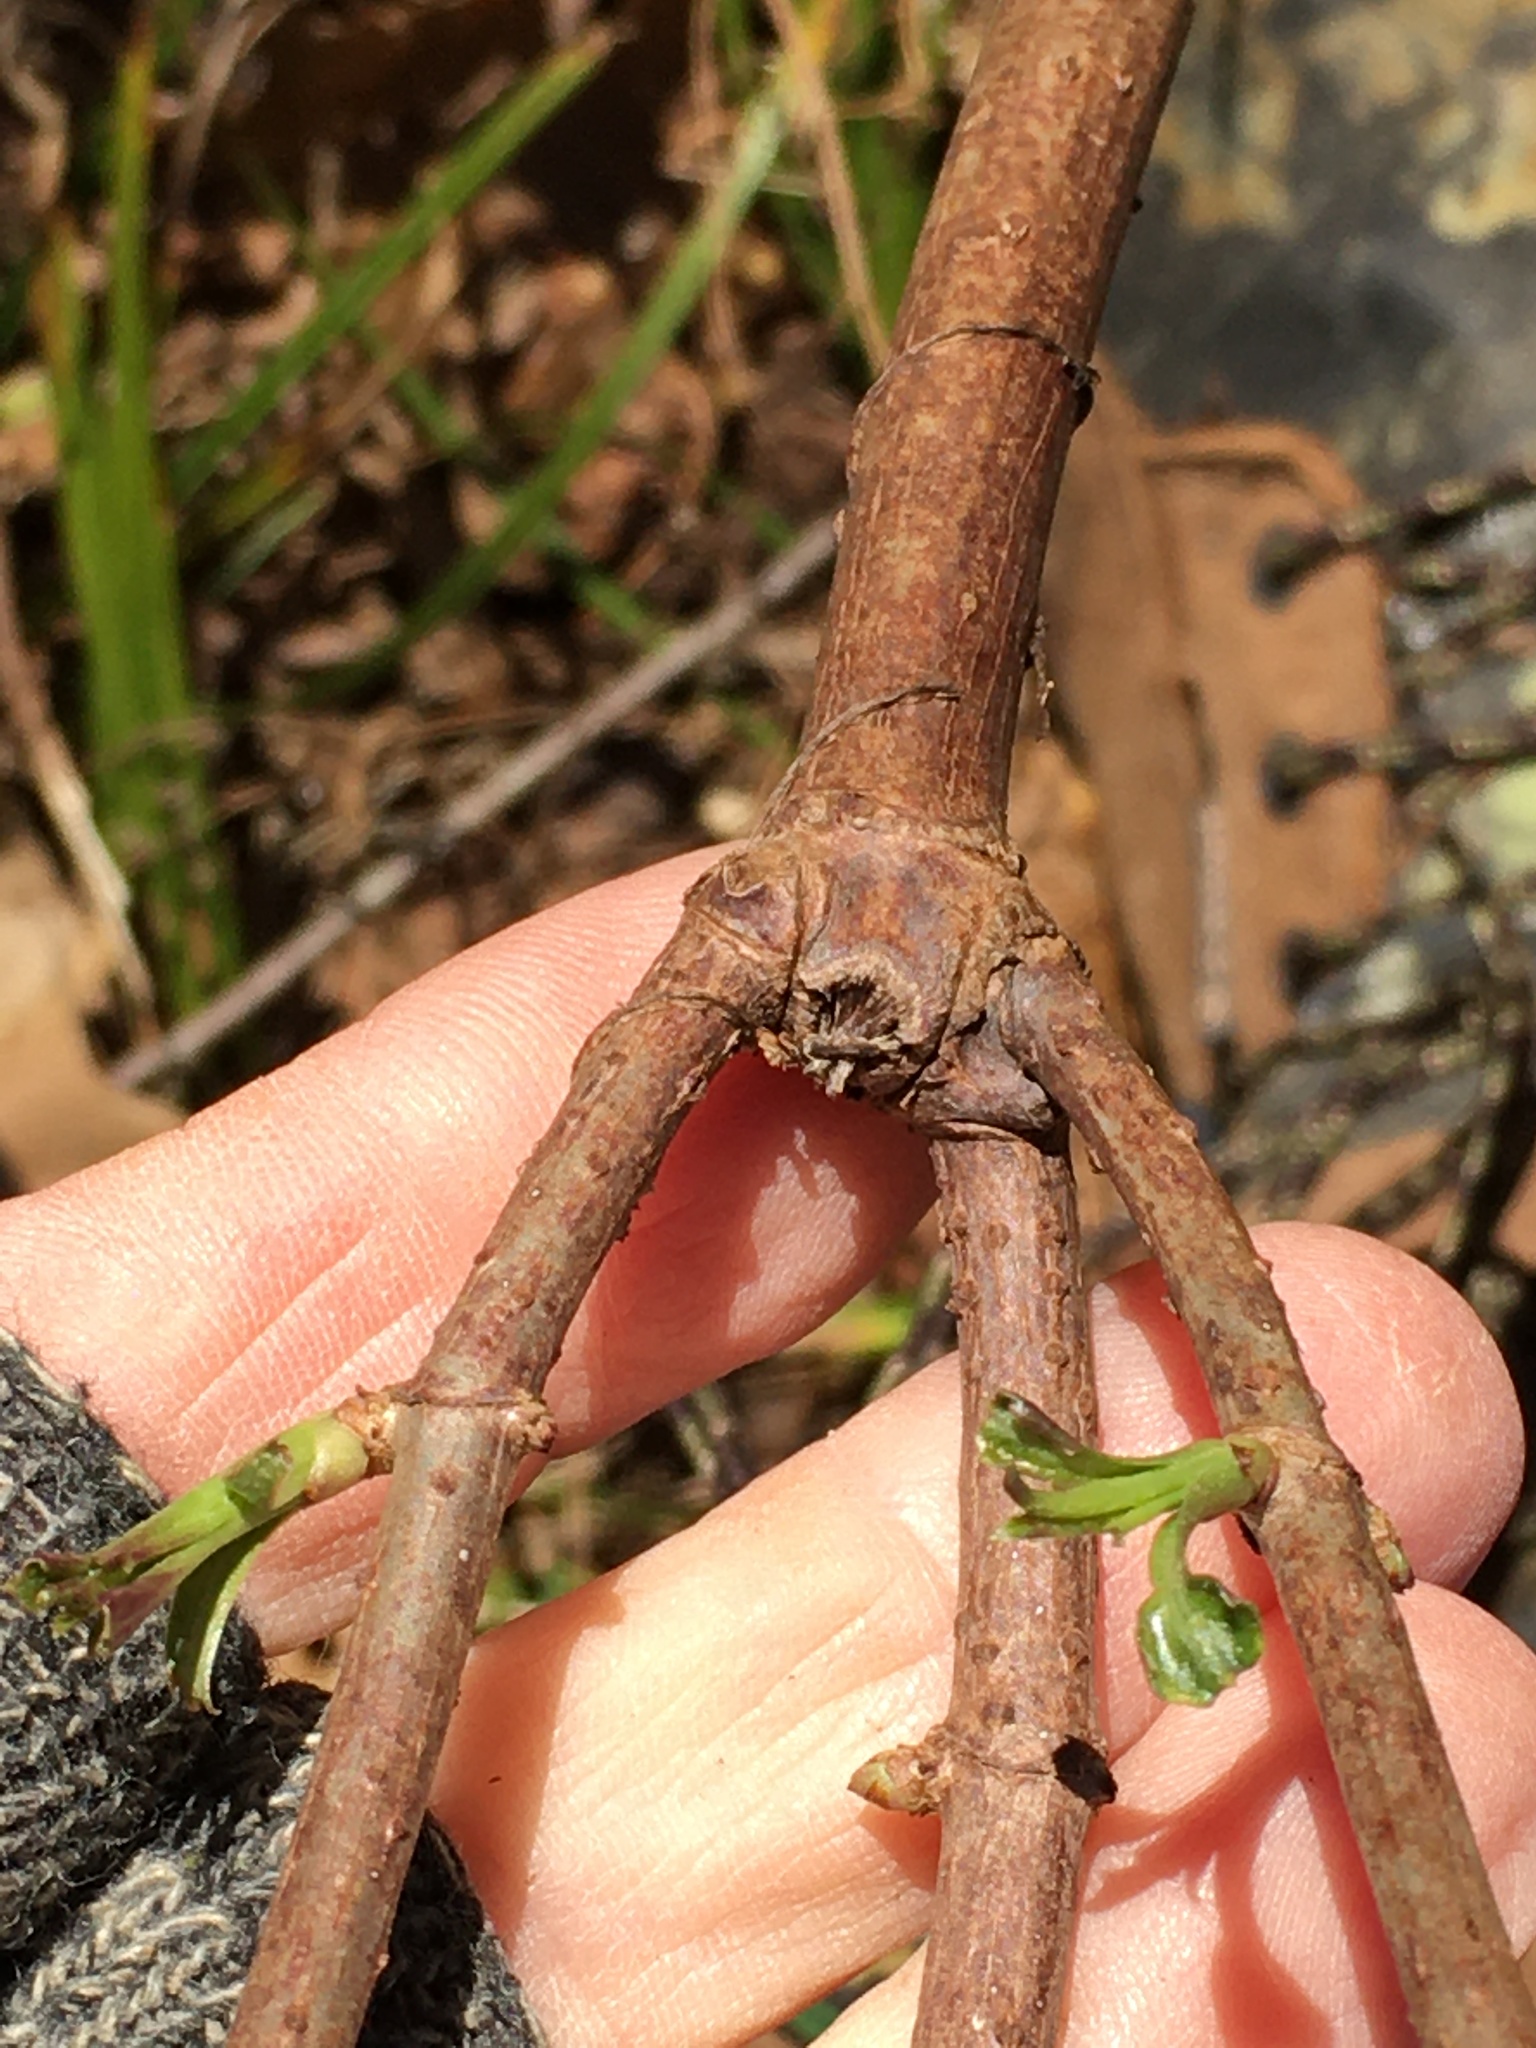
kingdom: Plantae
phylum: Tracheophyta
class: Magnoliopsida
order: Dipsacales
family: Viburnaceae
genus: Sambucus
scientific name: Sambucus canadensis
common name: American elder
